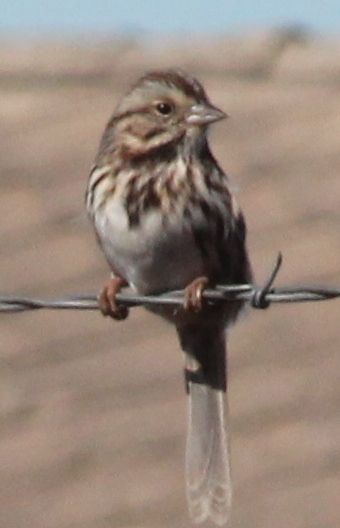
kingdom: Animalia
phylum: Chordata
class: Aves
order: Passeriformes
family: Passerellidae
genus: Melospiza
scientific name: Melospiza melodia
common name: Song sparrow
